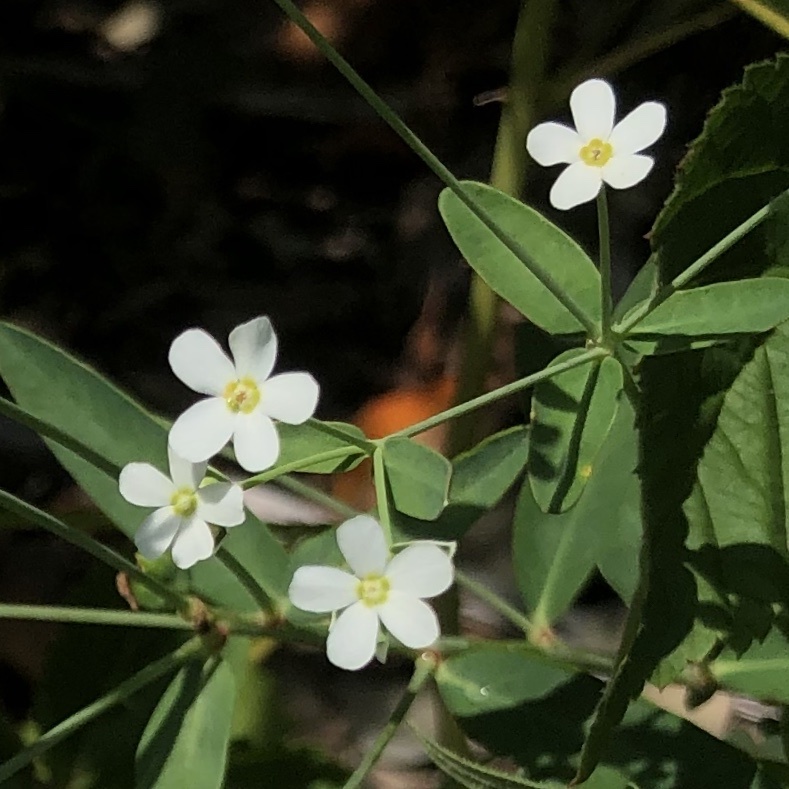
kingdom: Plantae
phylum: Tracheophyta
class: Magnoliopsida
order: Malpighiales
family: Euphorbiaceae
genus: Euphorbia
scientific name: Euphorbia corollata
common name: Flowering spurge
